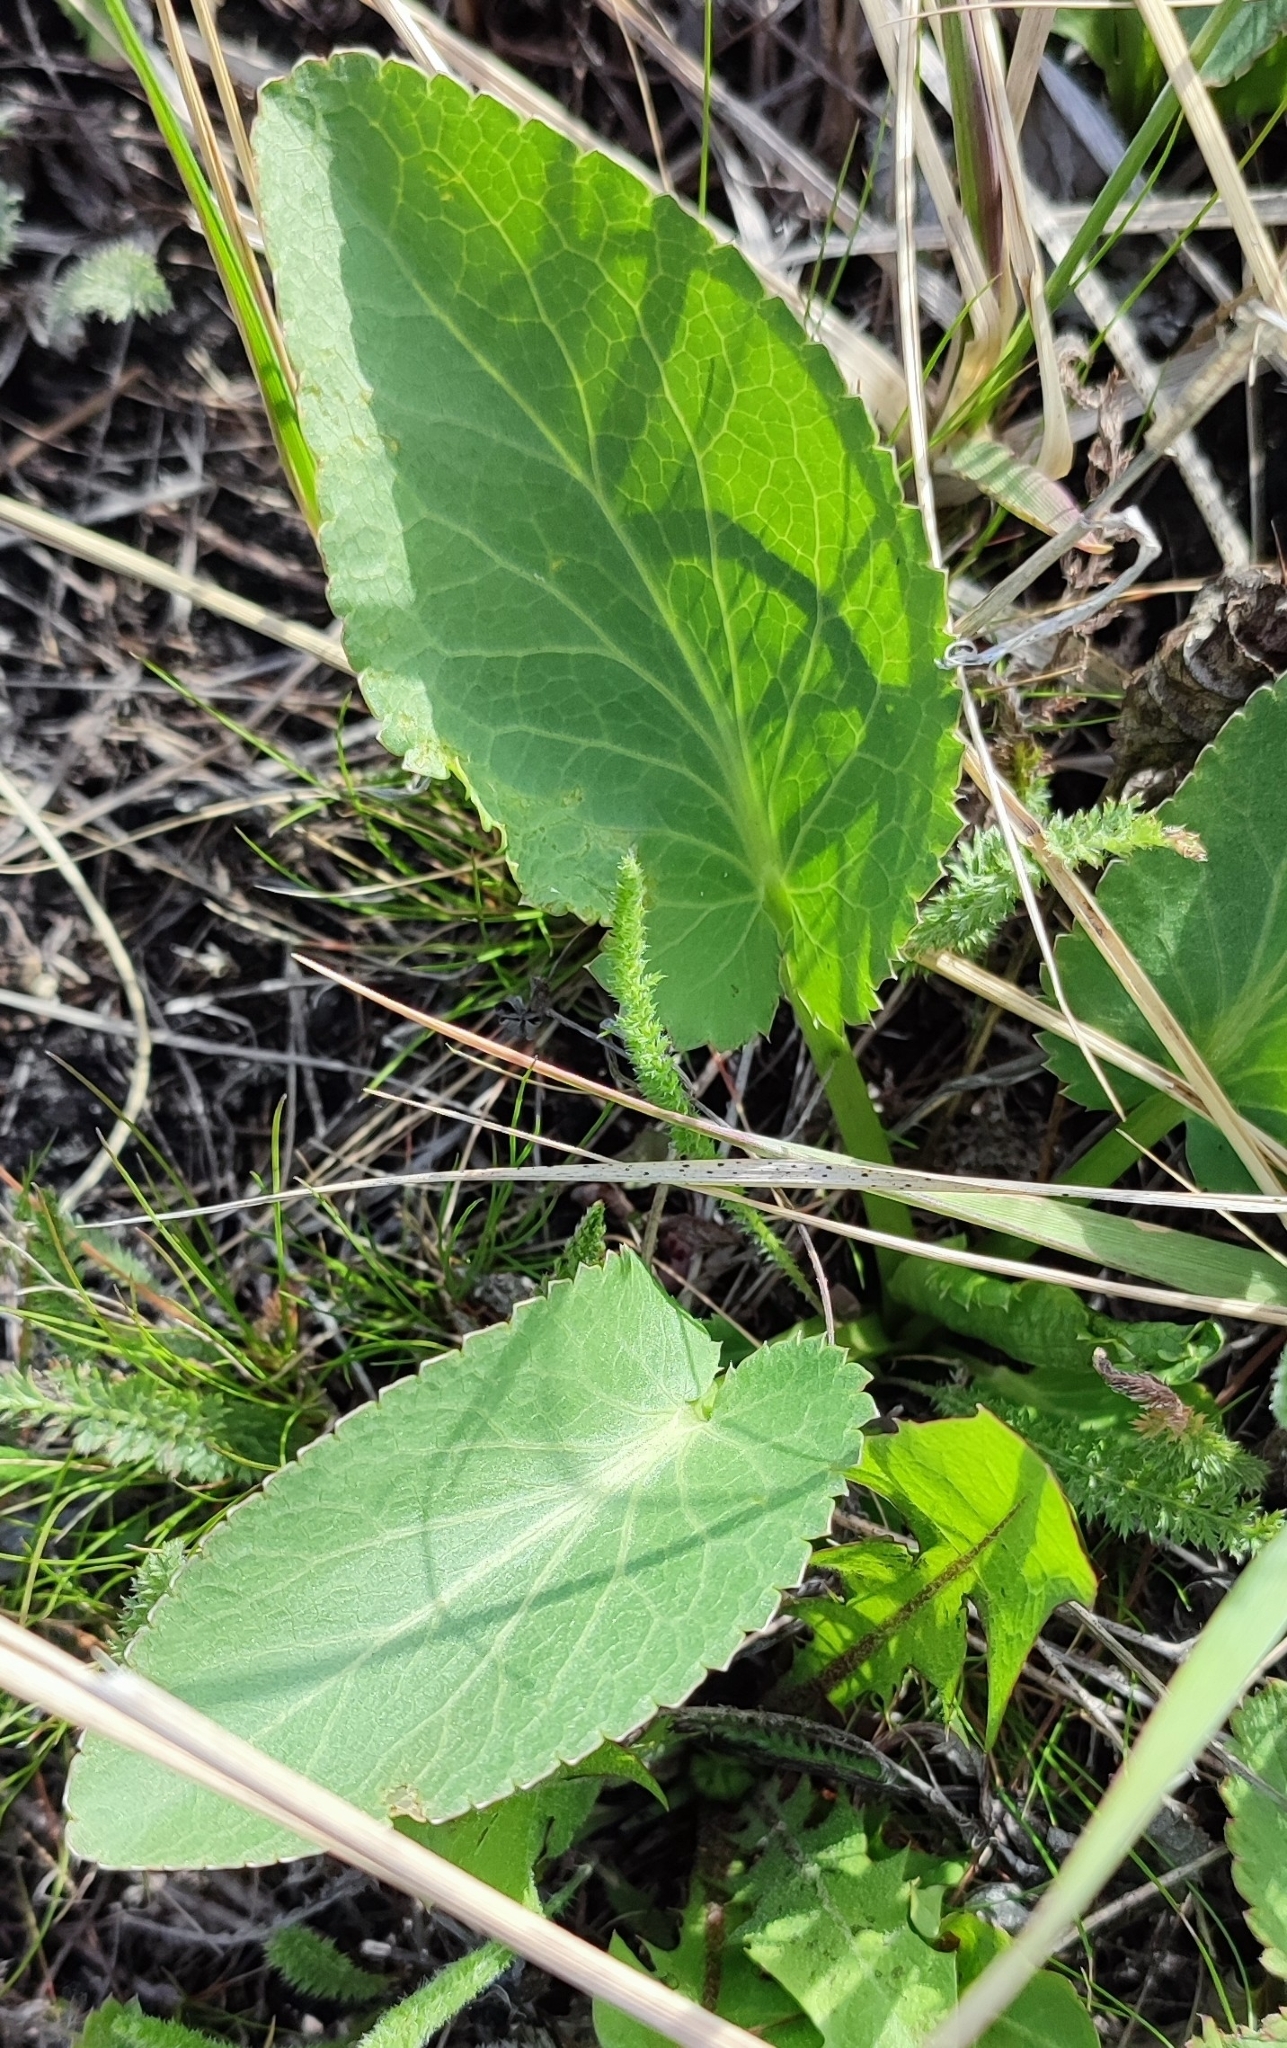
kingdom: Plantae
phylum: Tracheophyta
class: Magnoliopsida
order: Apiales
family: Apiaceae
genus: Eryngium
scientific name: Eryngium planum
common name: Blue eryngo
